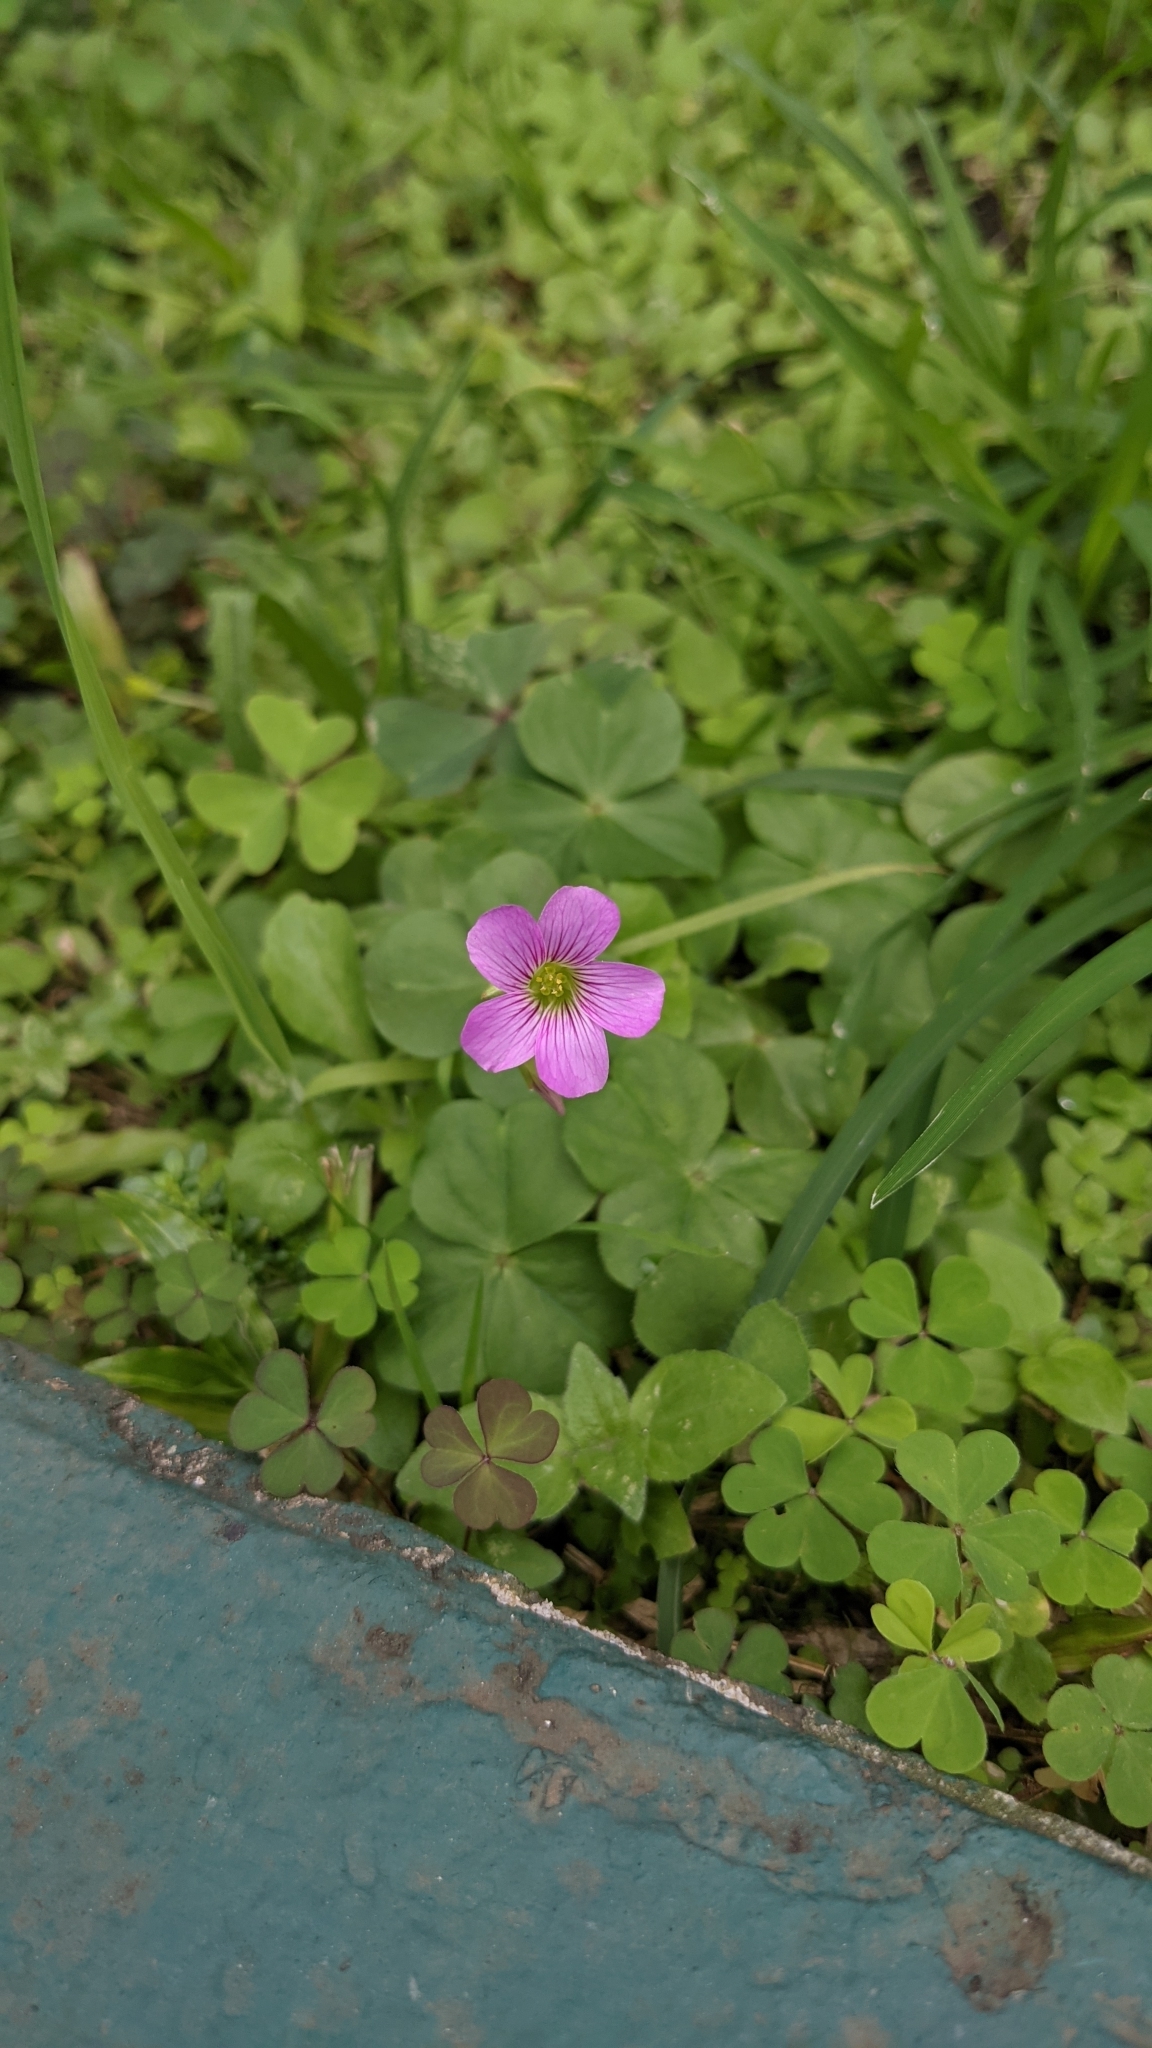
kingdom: Plantae
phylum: Tracheophyta
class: Magnoliopsida
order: Oxalidales
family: Oxalidaceae
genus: Oxalis
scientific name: Oxalis debilis
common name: Large-flowered pink-sorrel
